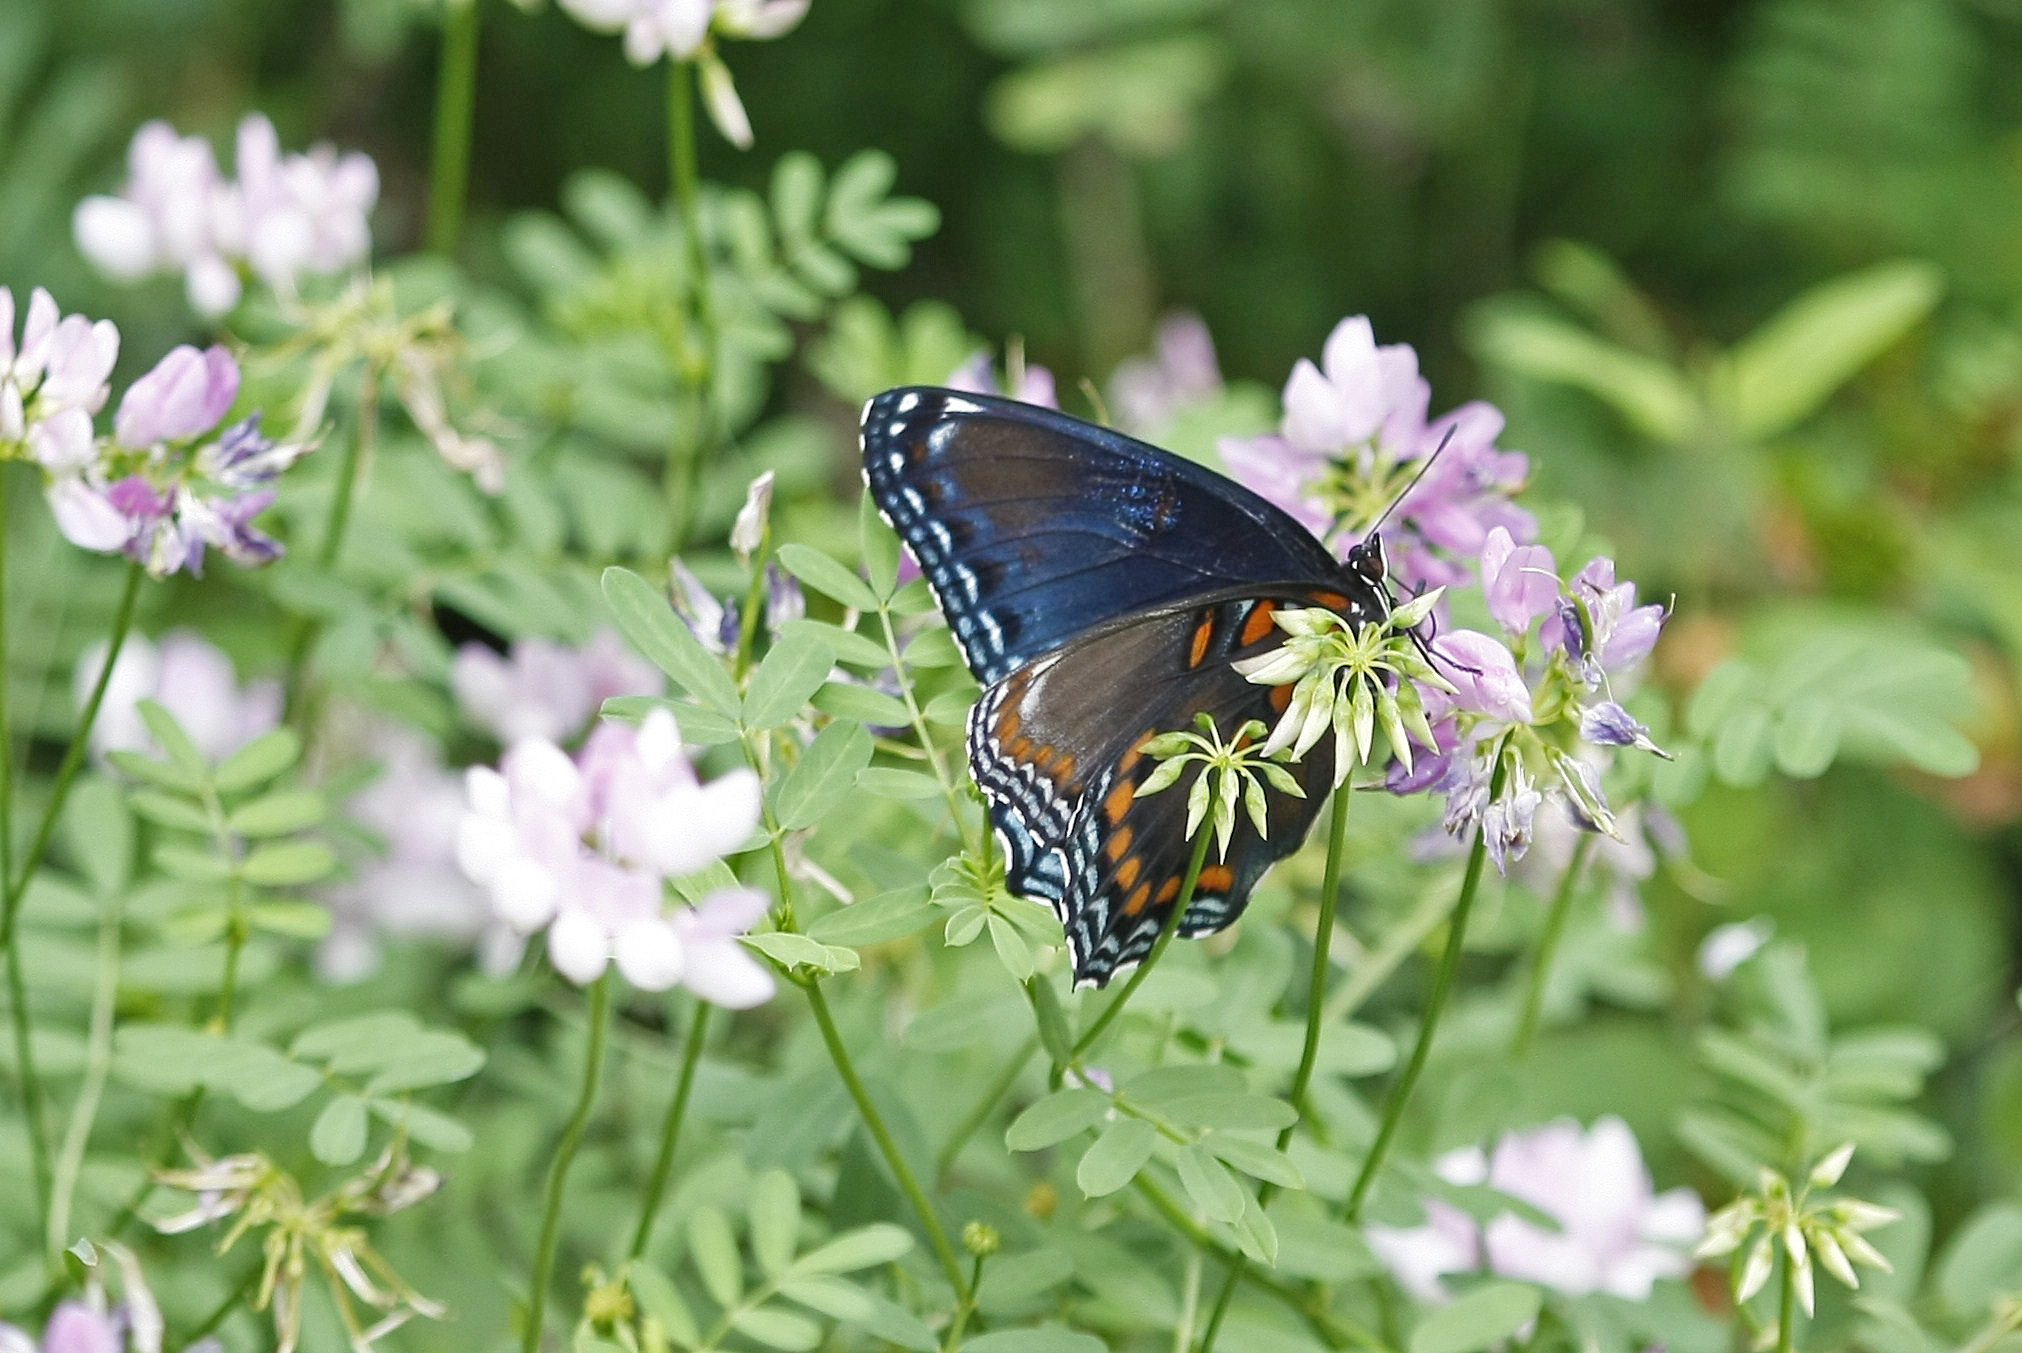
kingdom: Animalia
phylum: Arthropoda
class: Insecta
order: Lepidoptera
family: Nymphalidae
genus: Limenitis
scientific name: Limenitis astyanax
